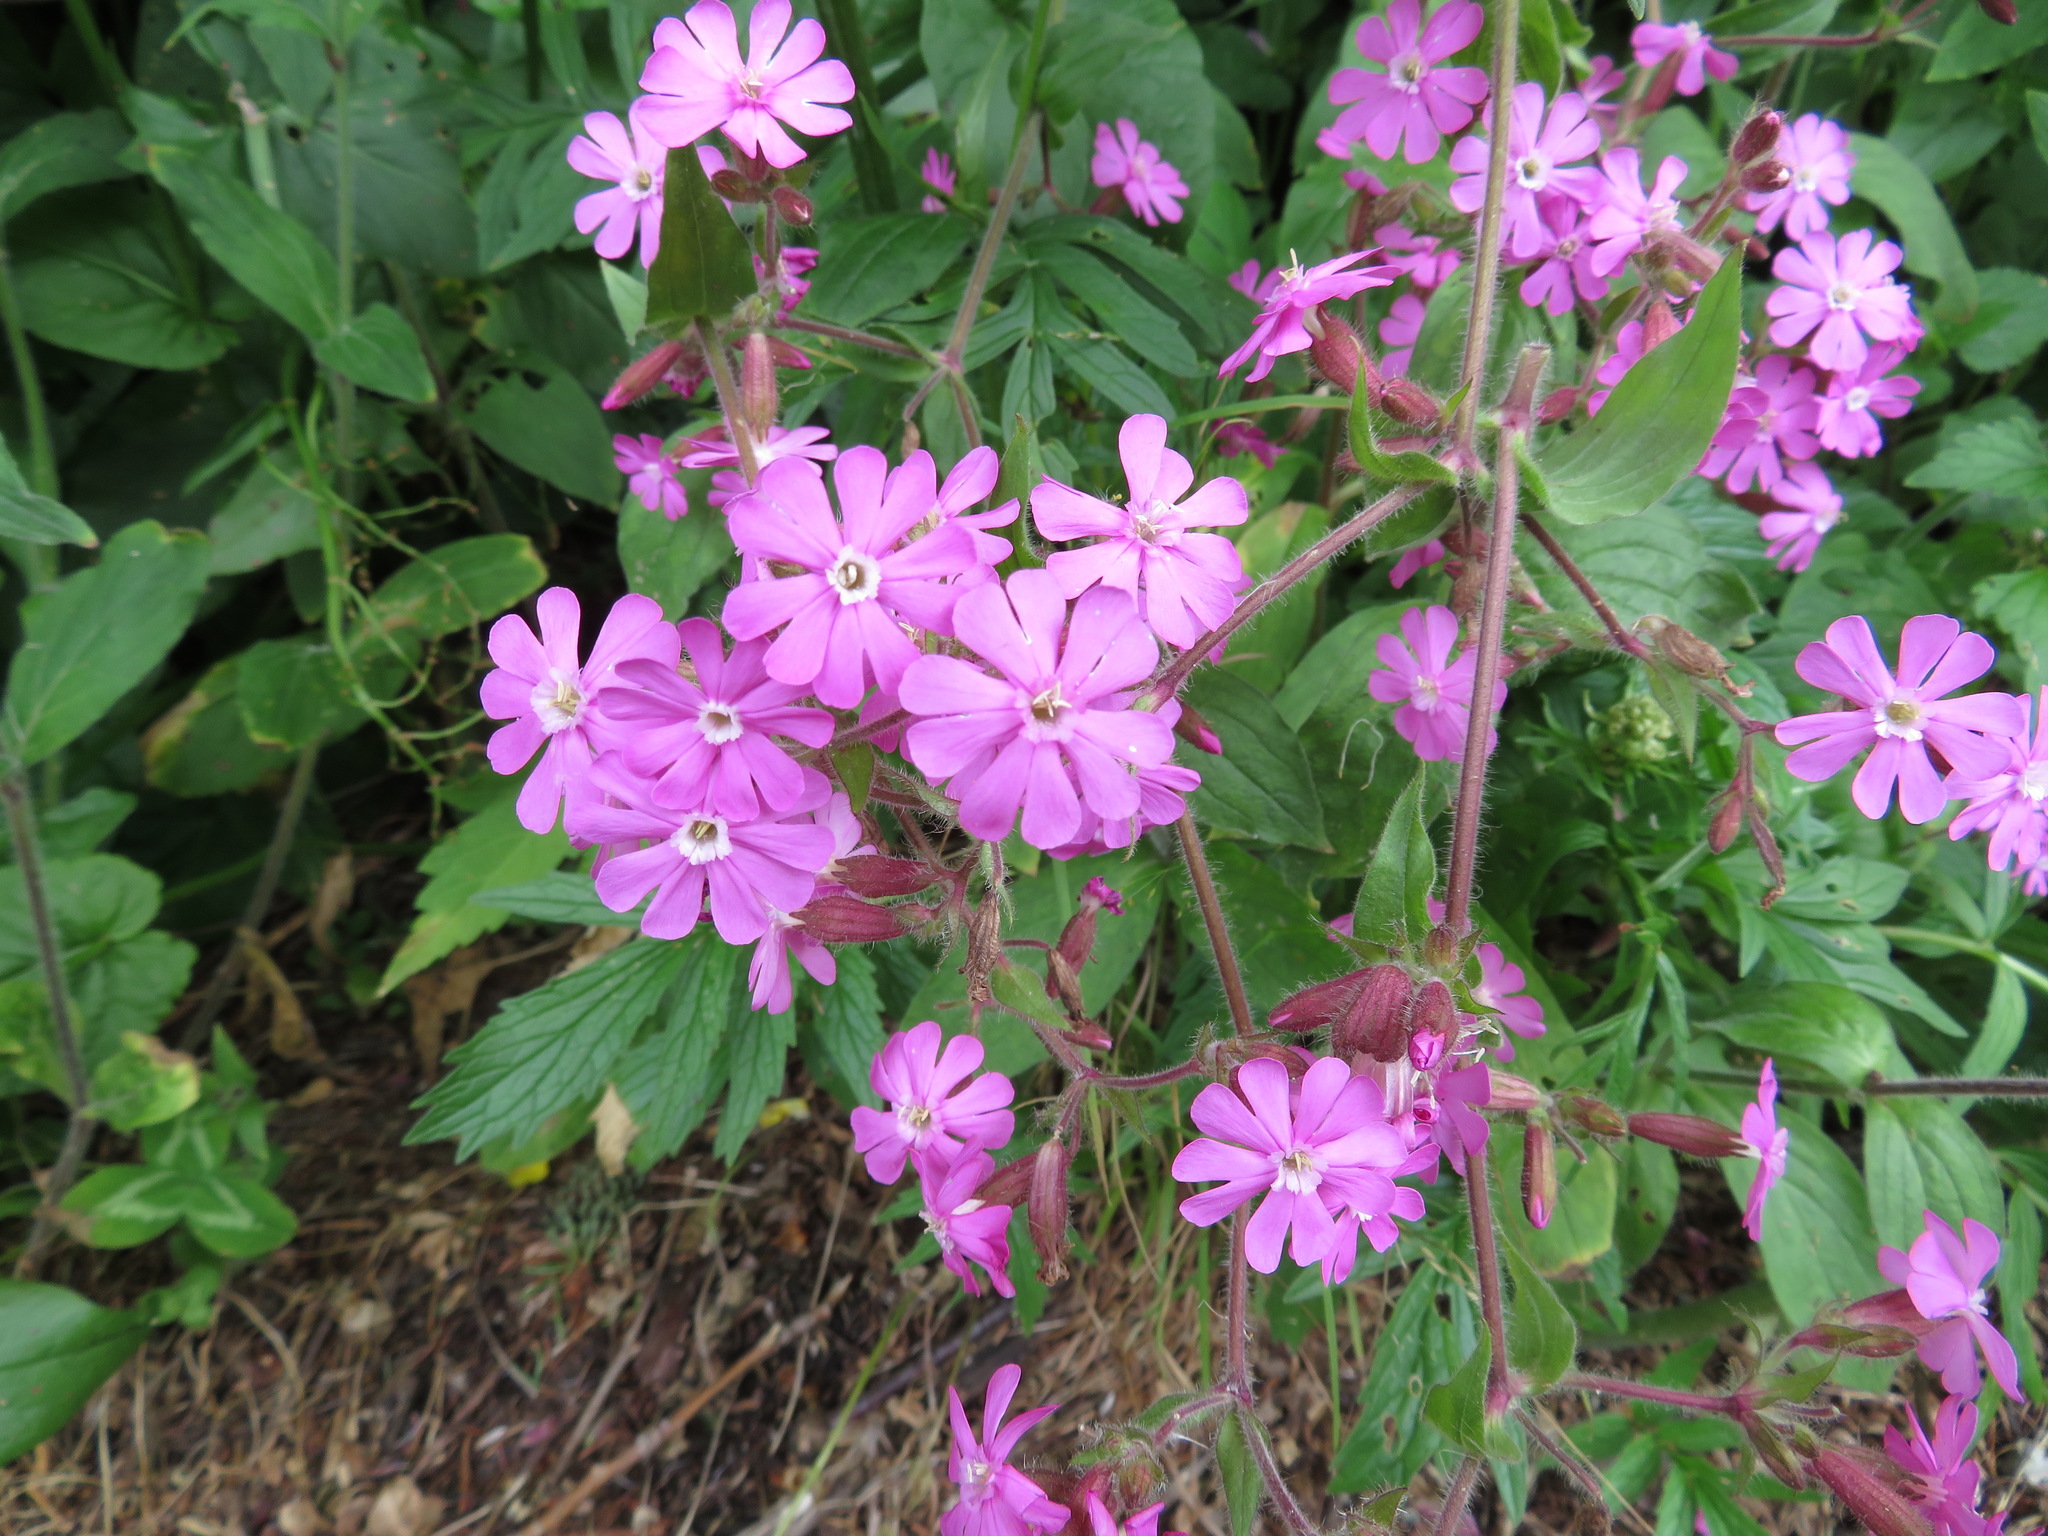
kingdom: Plantae
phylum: Tracheophyta
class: Magnoliopsida
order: Caryophyllales
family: Caryophyllaceae
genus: Silene
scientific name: Silene dioica
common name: Red campion
